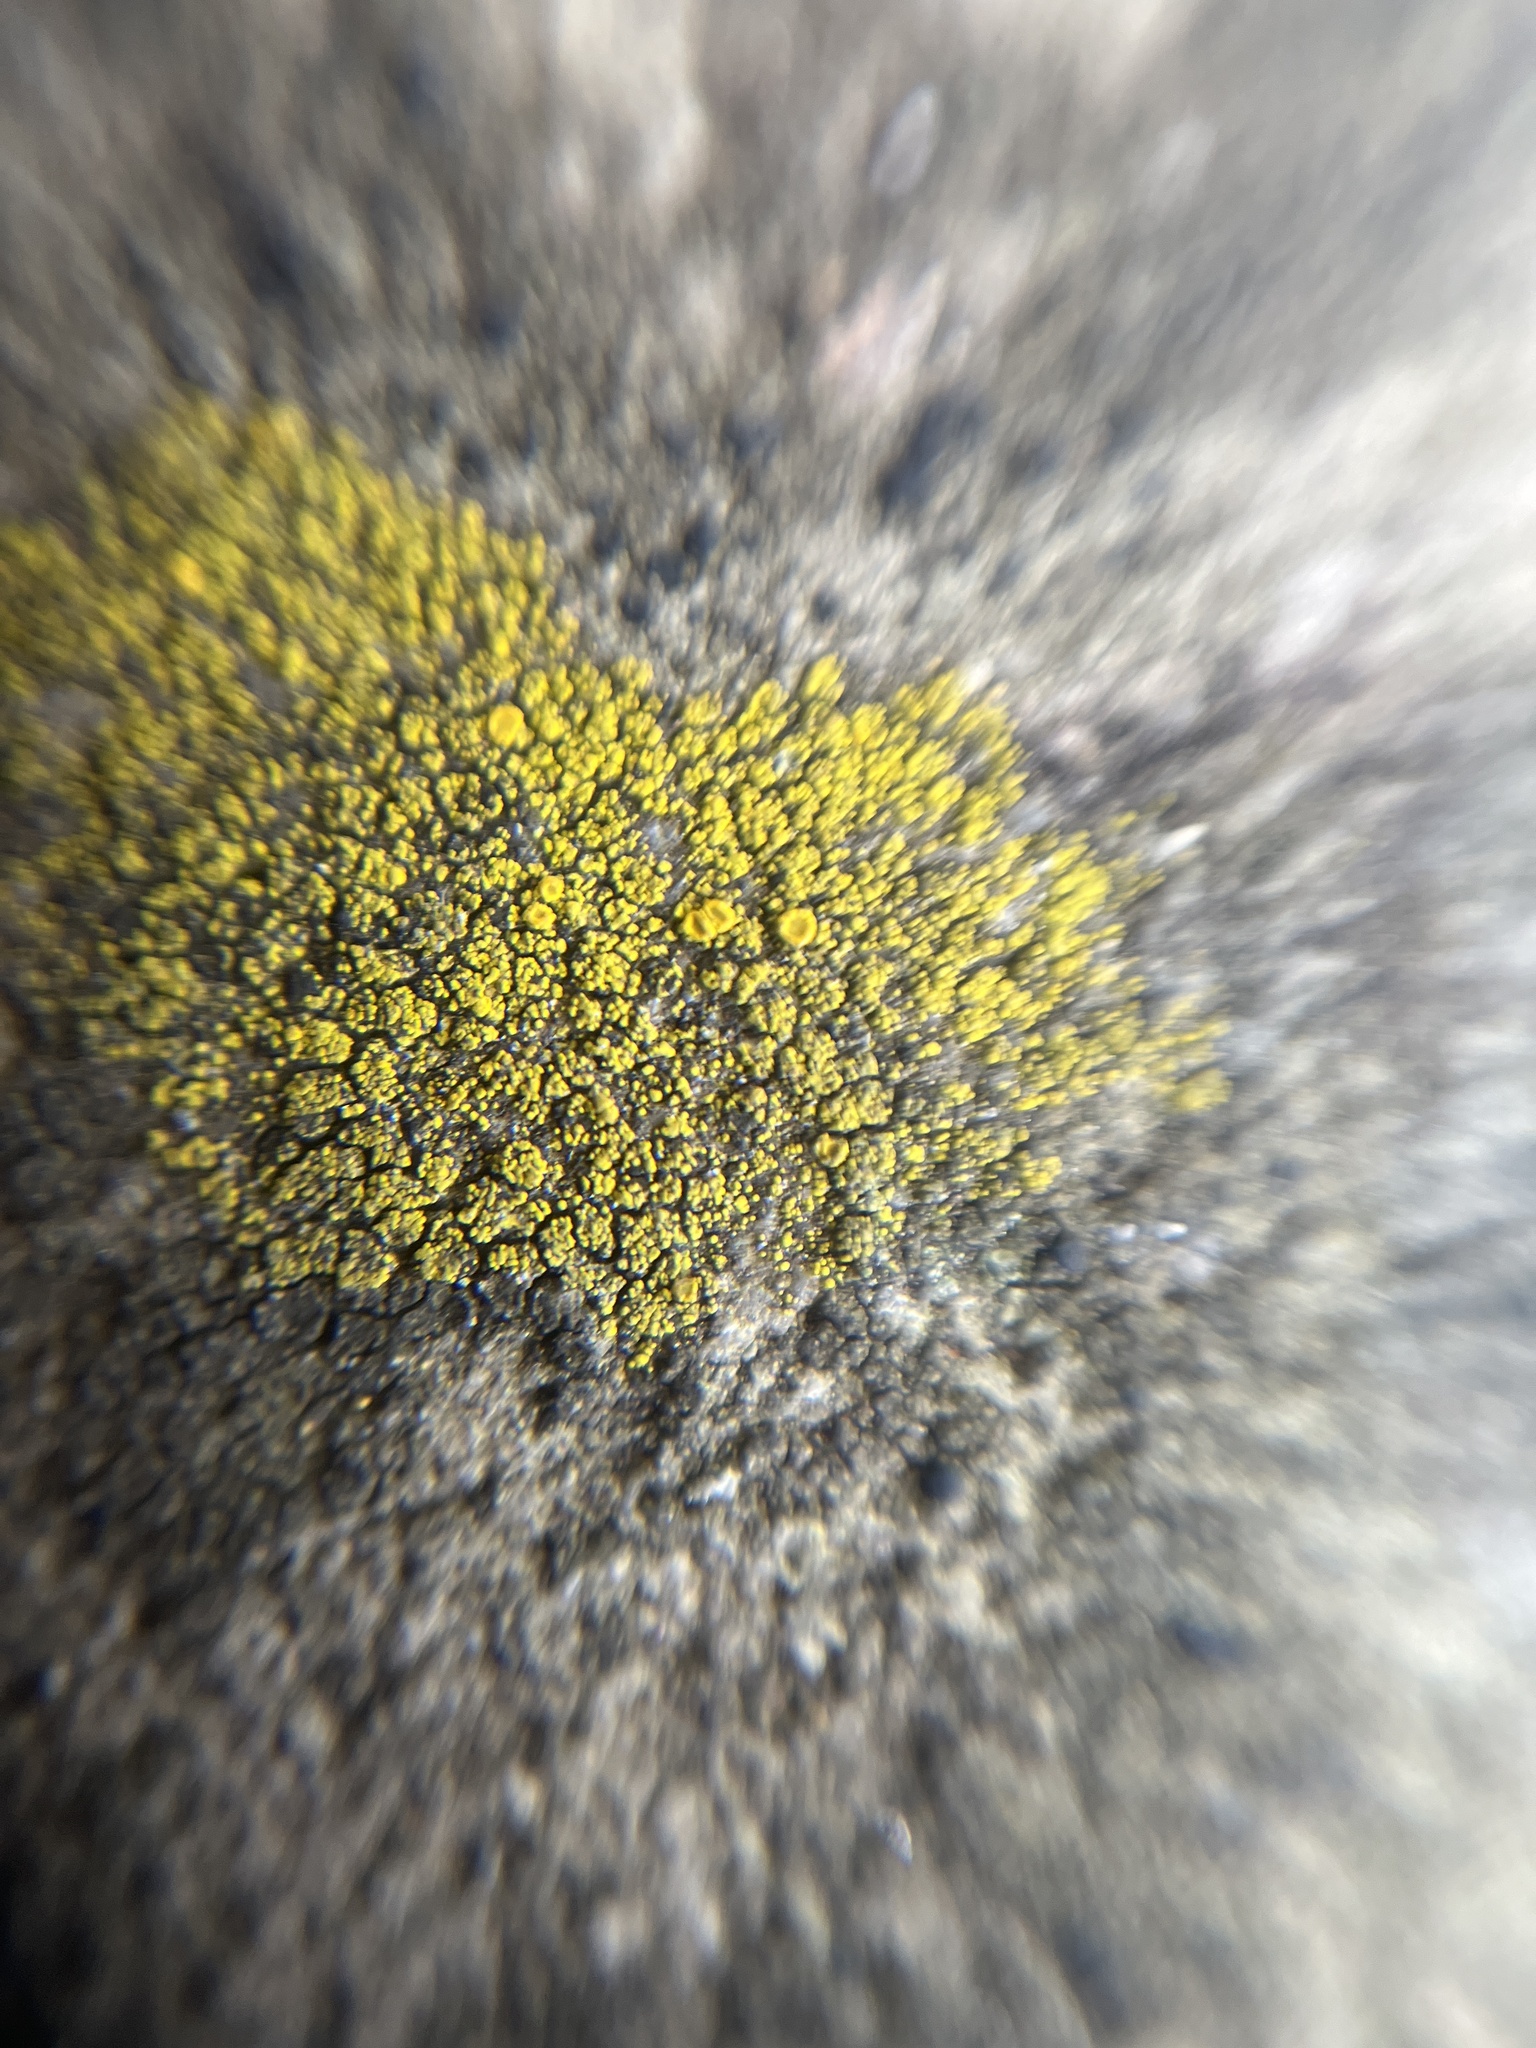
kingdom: Fungi
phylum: Ascomycota
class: Candelariomycetes
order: Candelariales
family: Candelariaceae
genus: Candelariella
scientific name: Candelariella vitellina
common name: Common goldspeck
